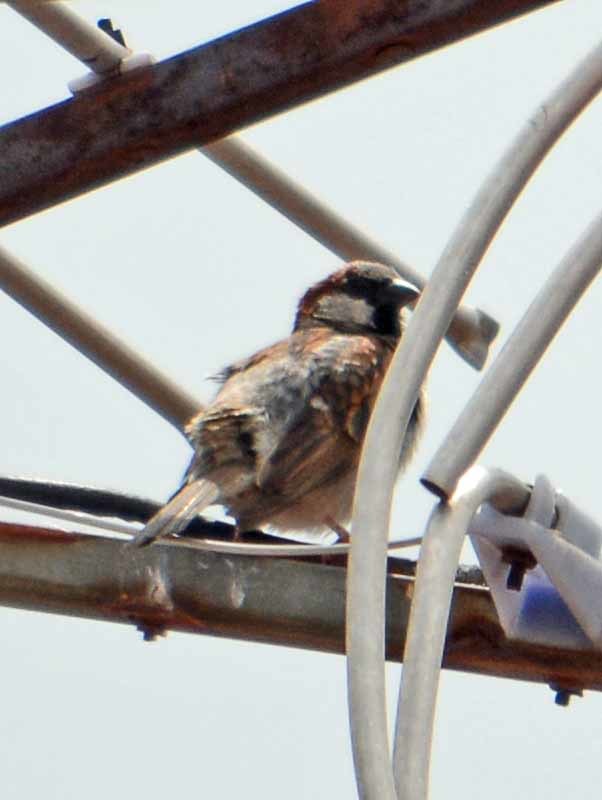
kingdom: Animalia
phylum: Chordata
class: Aves
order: Passeriformes
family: Passeridae
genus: Passer
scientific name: Passer domesticus
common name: House sparrow
